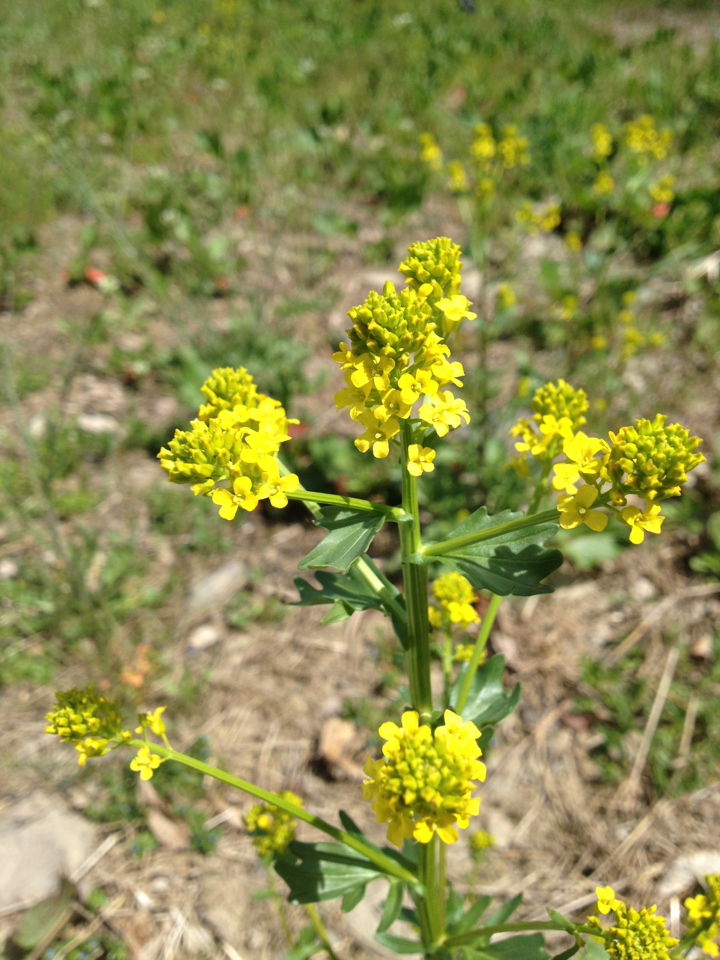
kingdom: Plantae
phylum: Tracheophyta
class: Magnoliopsida
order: Brassicales
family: Brassicaceae
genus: Barbarea
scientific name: Barbarea vulgaris
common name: Cressy-greens
